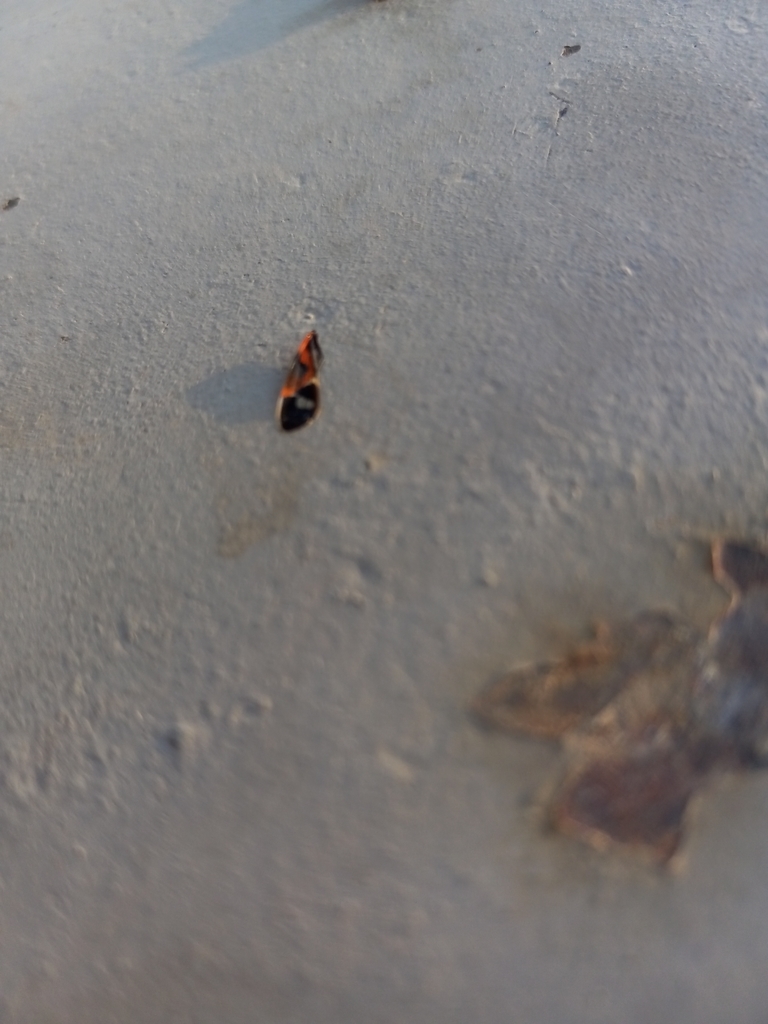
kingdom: Animalia
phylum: Arthropoda
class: Insecta
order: Hemiptera
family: Lygaeidae
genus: Lygaeus
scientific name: Lygaeus kalmii
